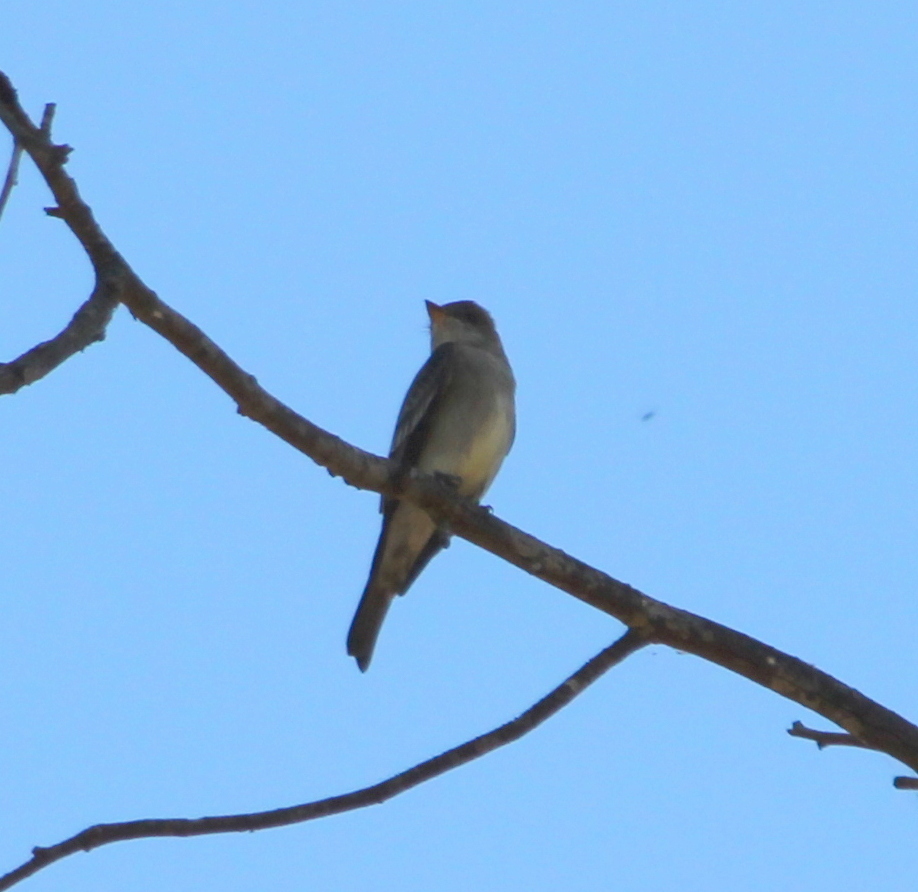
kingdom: Animalia
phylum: Chordata
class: Aves
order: Passeriformes
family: Tyrannidae
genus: Contopus
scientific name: Contopus sordidulus
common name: Western wood-pewee
